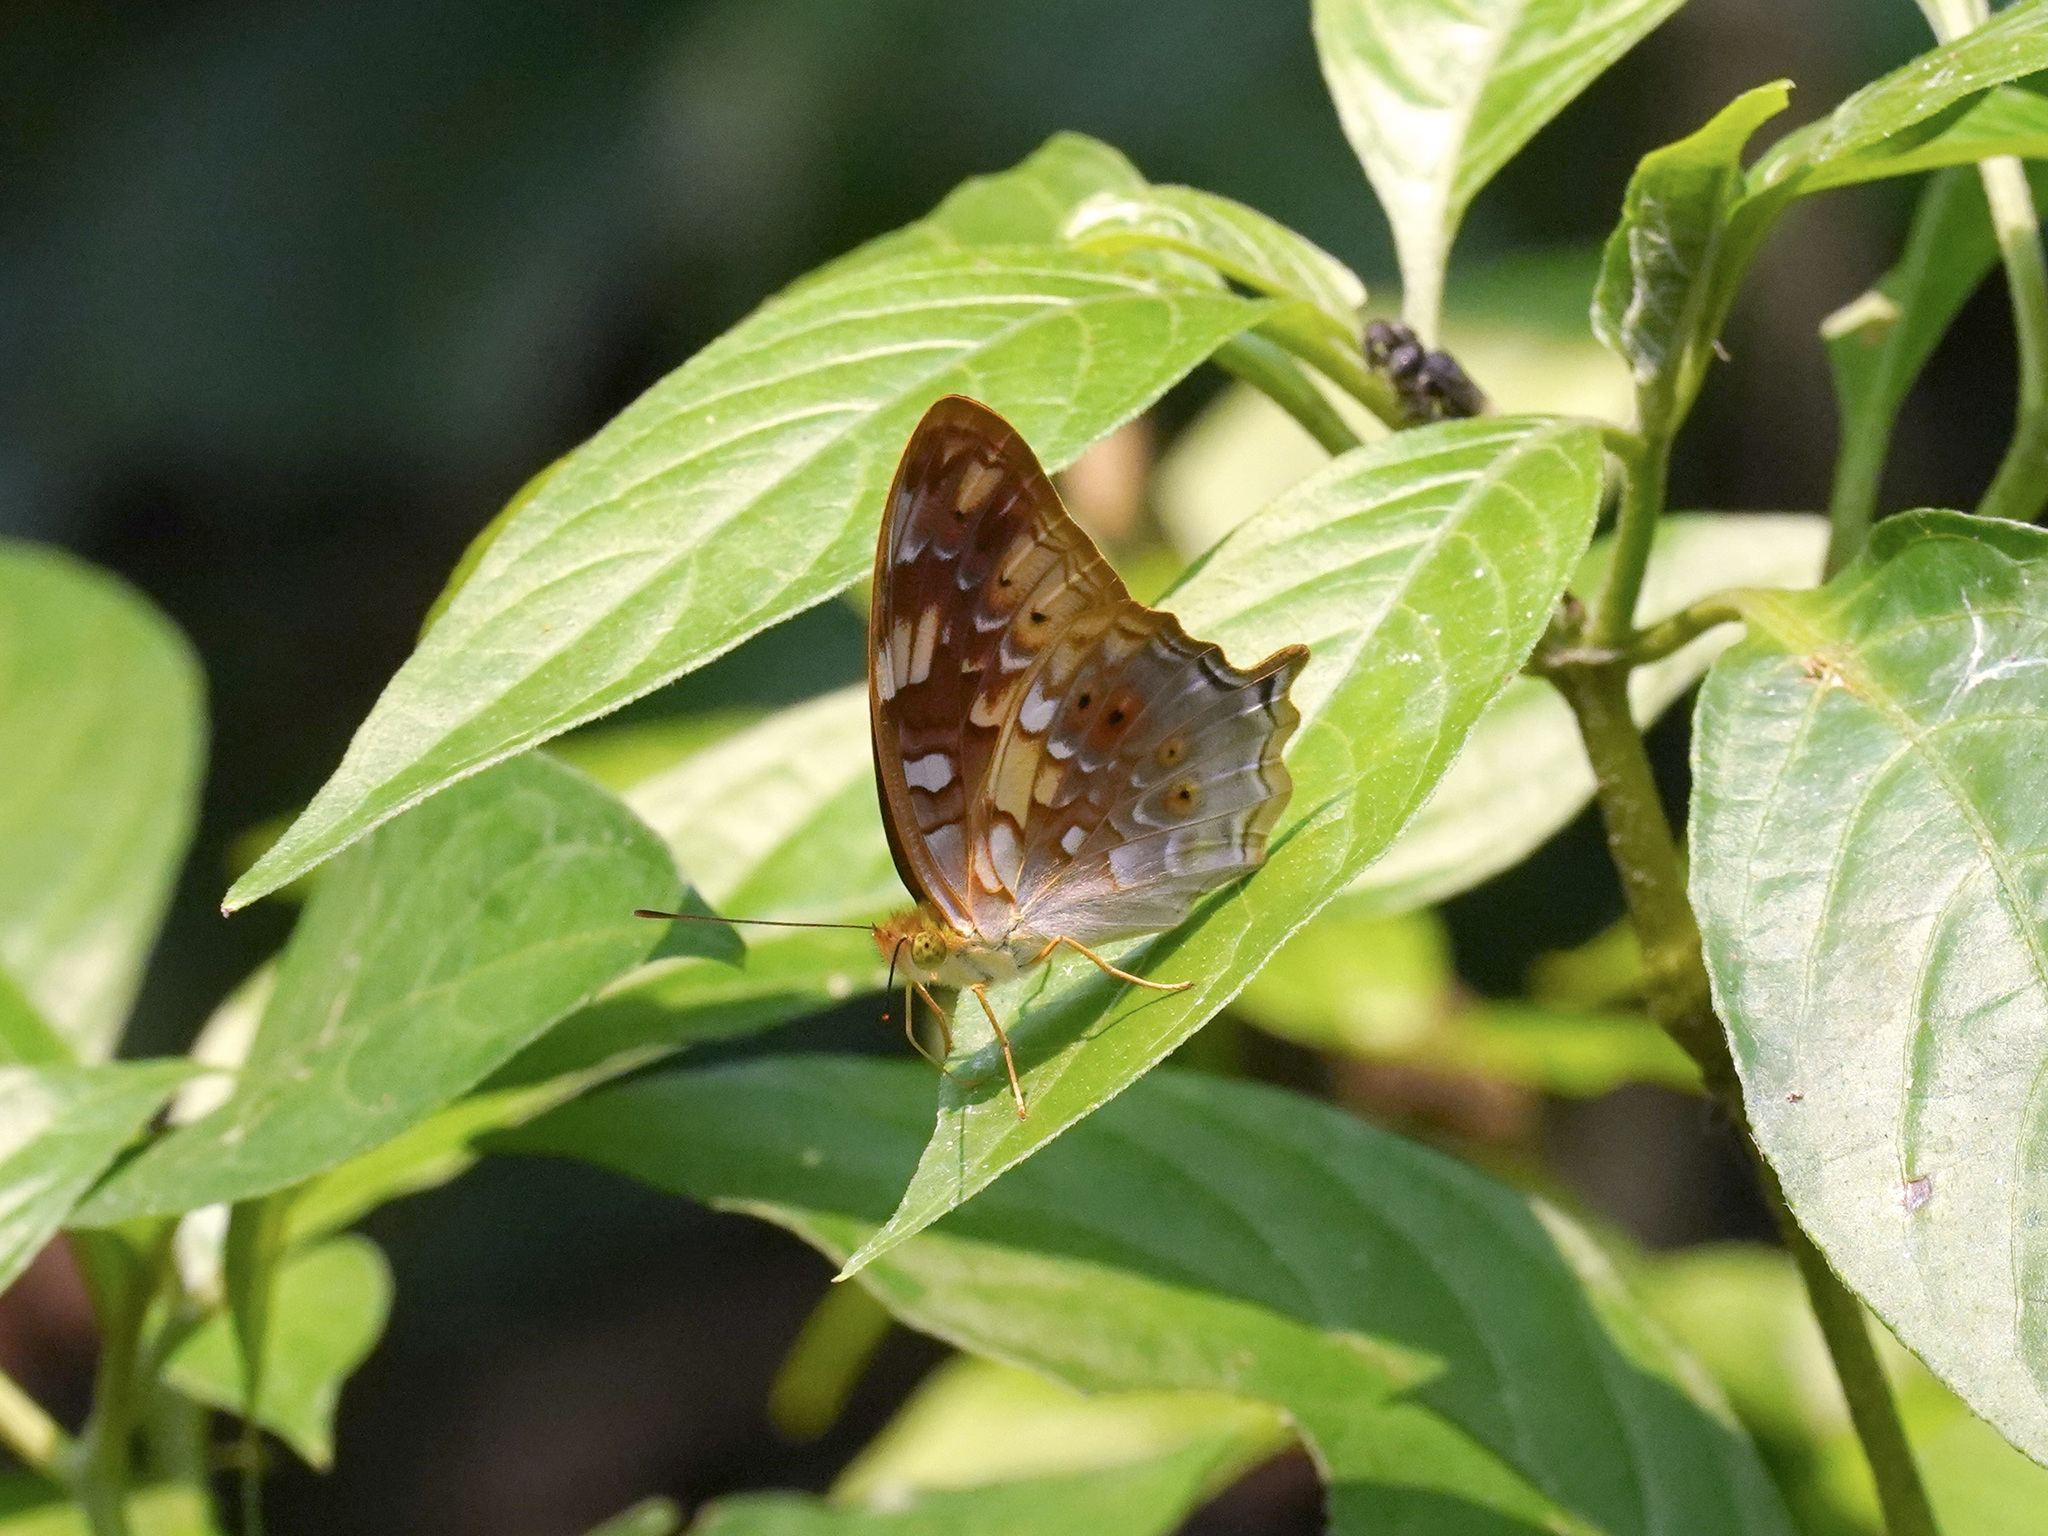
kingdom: Animalia
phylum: Arthropoda
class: Insecta
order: Lepidoptera
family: Nymphalidae
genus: Vagrans
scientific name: Vagrans sinha
